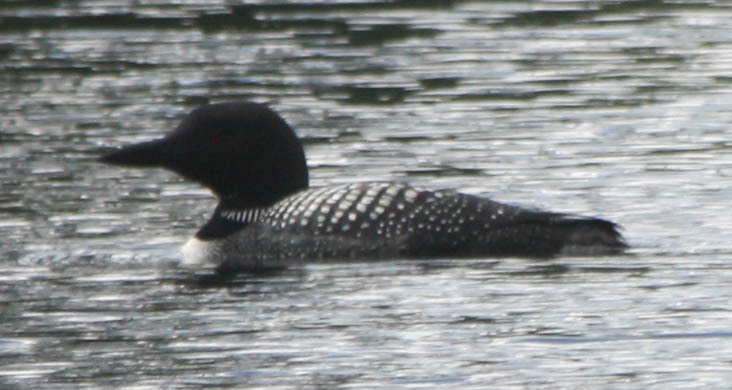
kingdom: Animalia
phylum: Chordata
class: Aves
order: Gaviiformes
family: Gaviidae
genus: Gavia
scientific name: Gavia immer
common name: Common loon
